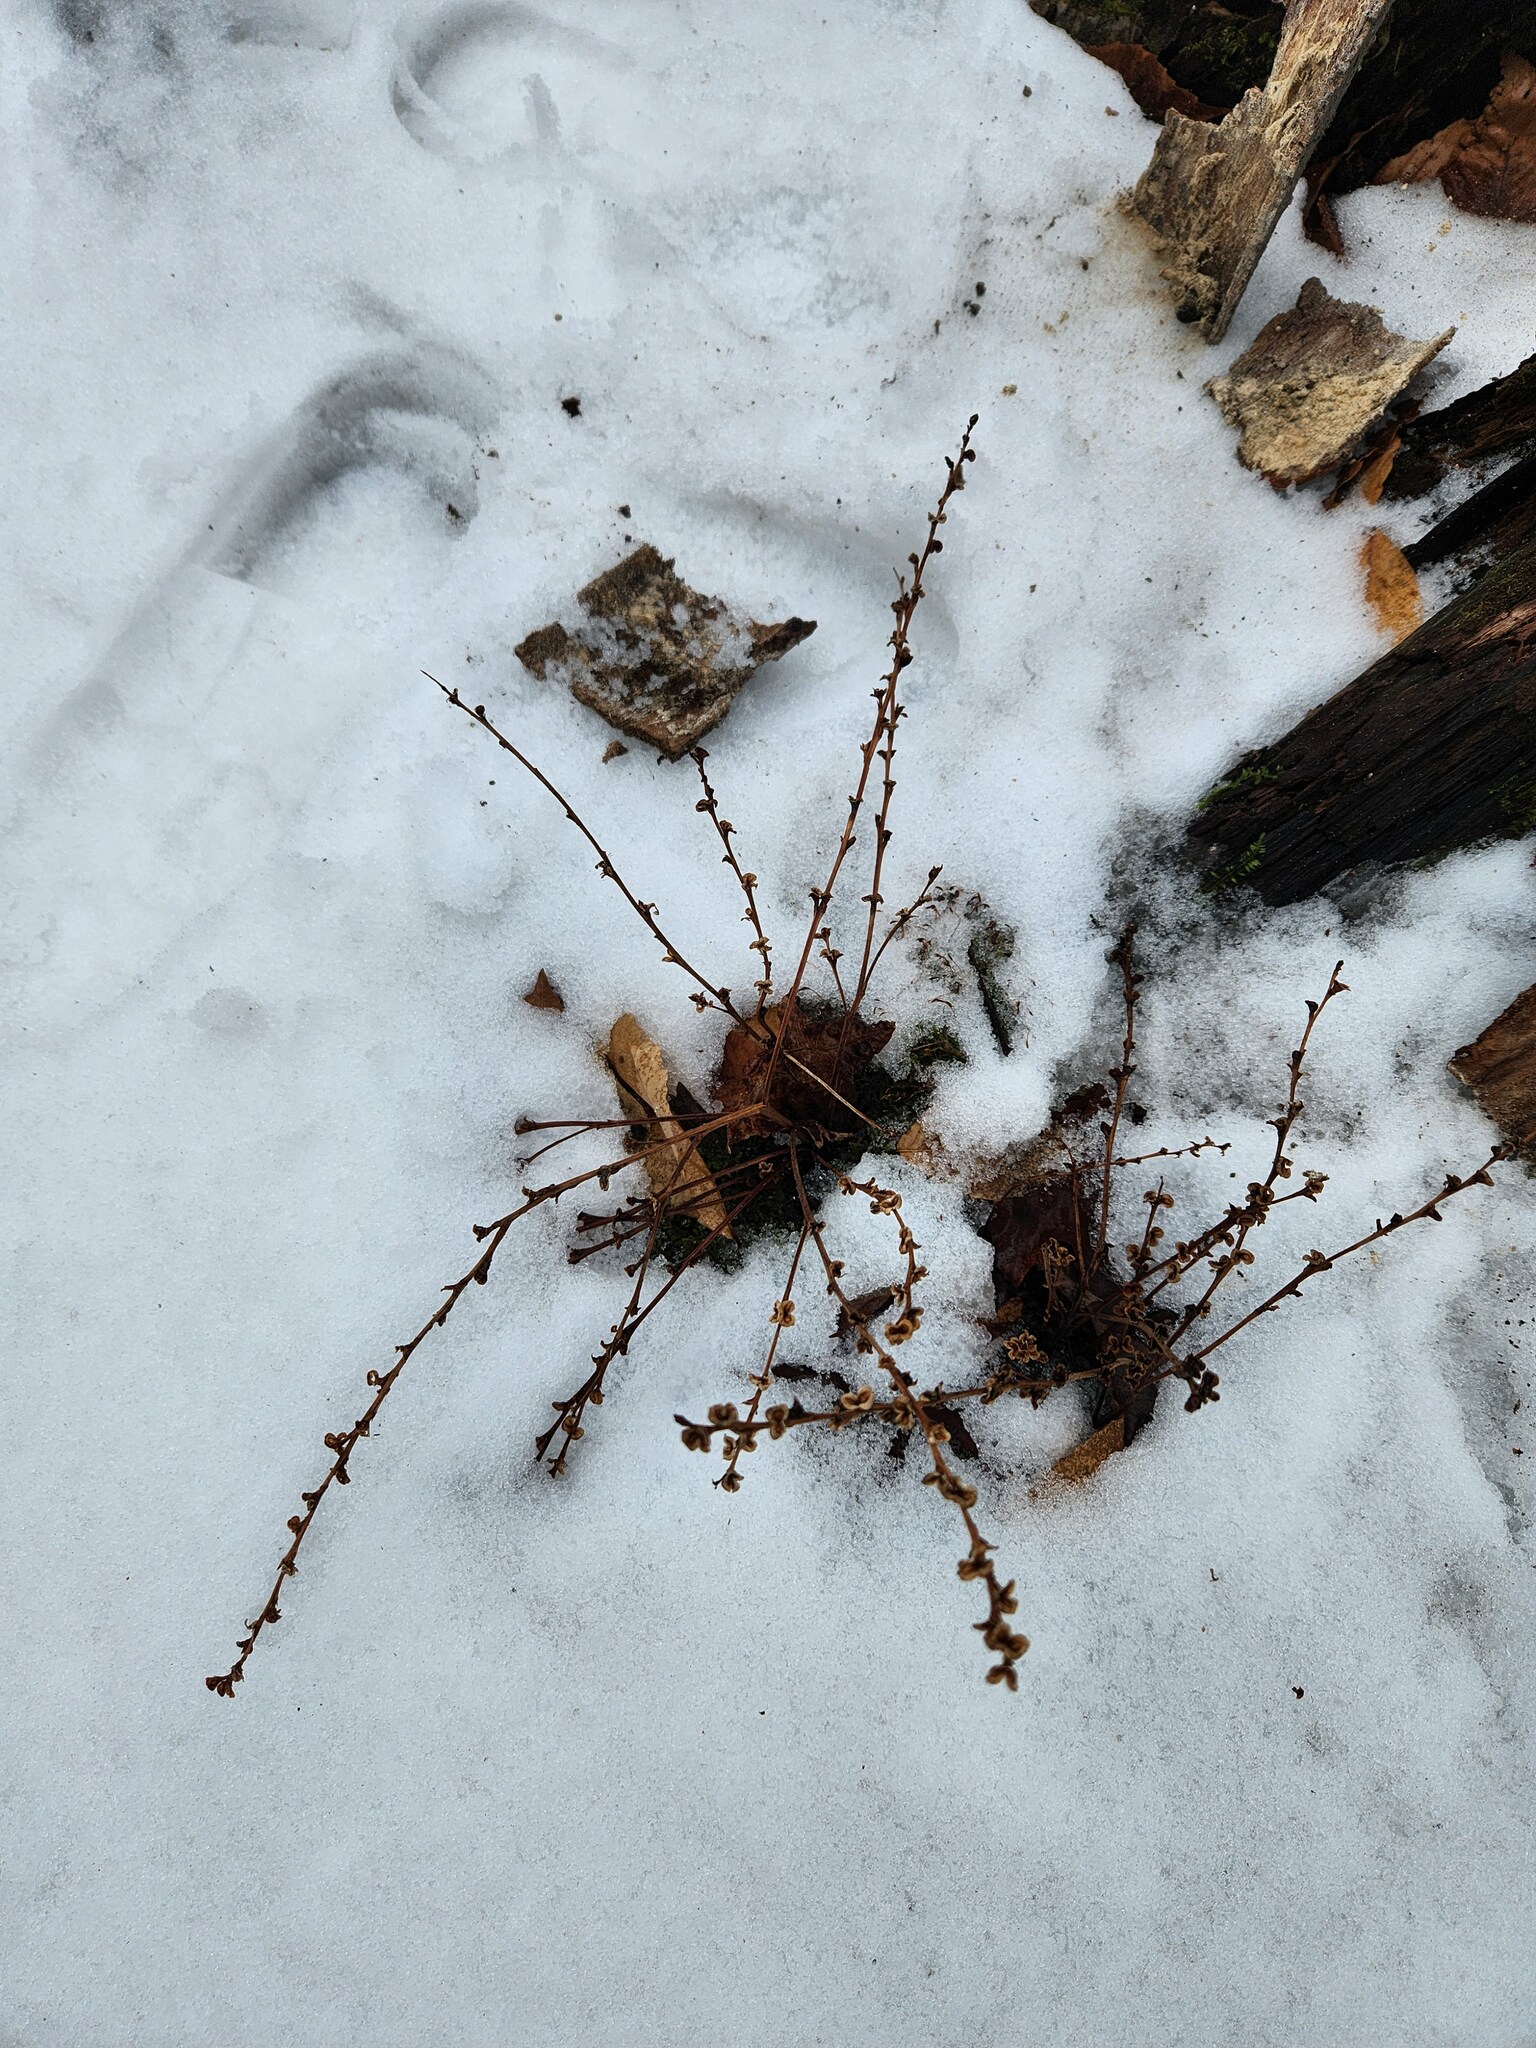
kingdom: Plantae
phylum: Tracheophyta
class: Magnoliopsida
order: Lamiales
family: Orobanchaceae
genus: Epifagus
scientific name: Epifagus virginiana
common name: Beechdrops
